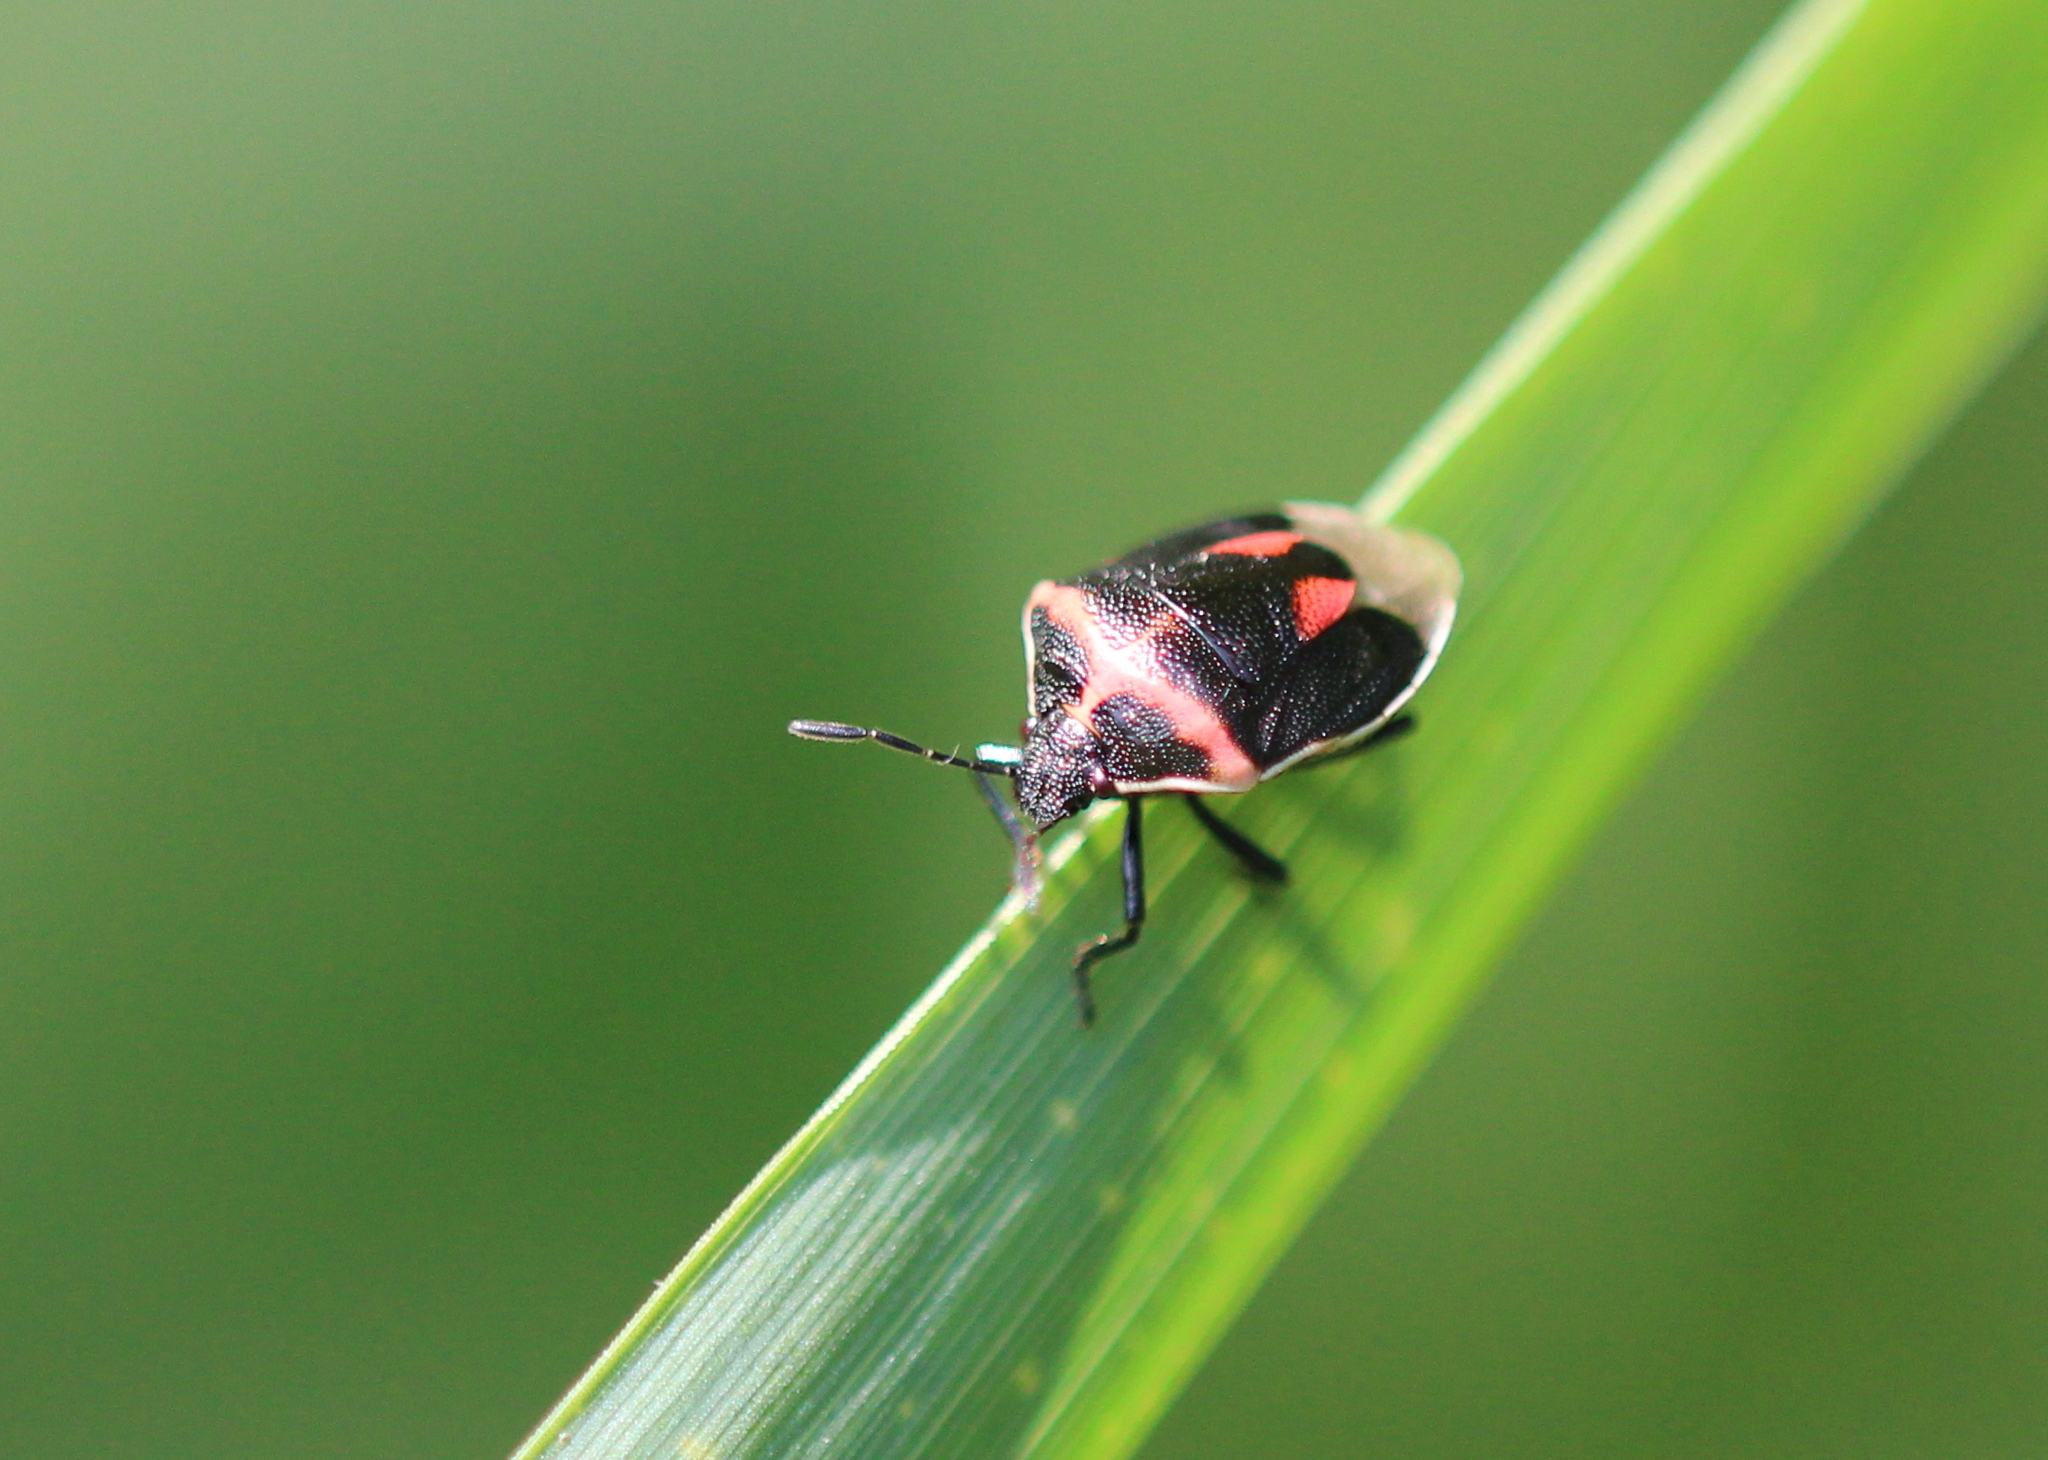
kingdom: Animalia
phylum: Arthropoda
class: Insecta
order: Hemiptera
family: Pentatomidae
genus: Cosmopepla
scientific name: Cosmopepla lintneriana
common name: Twice-stabbed stink bug
